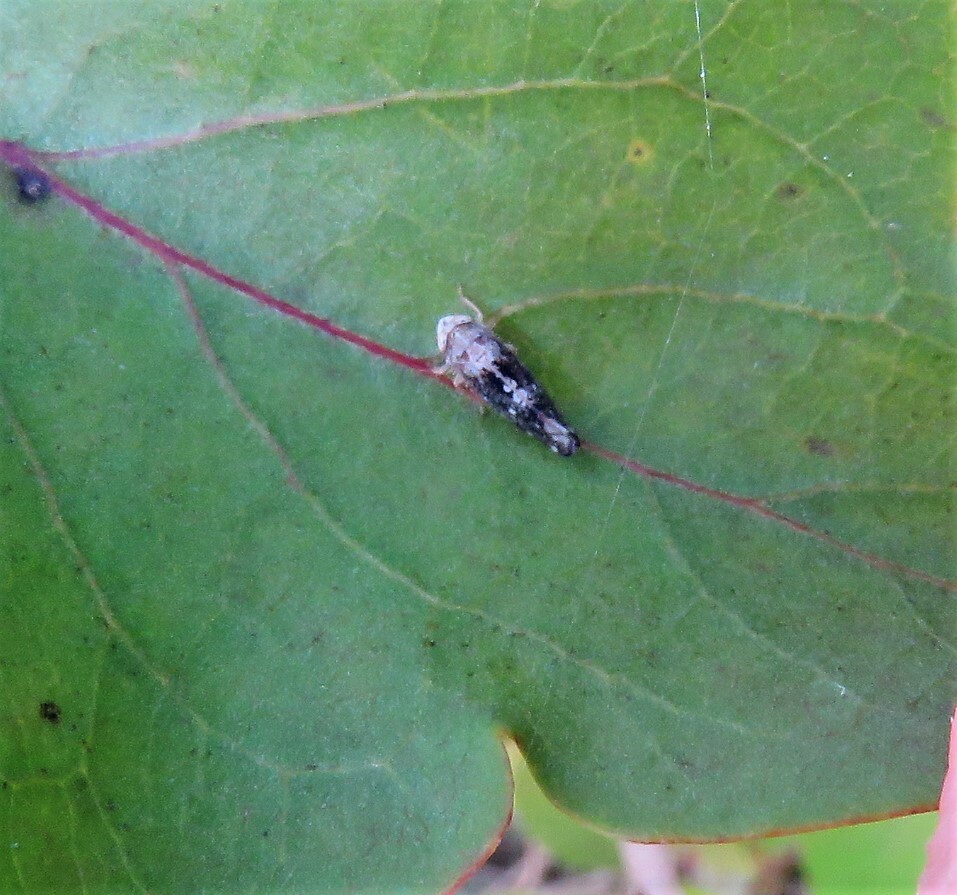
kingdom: Animalia
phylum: Arthropoda
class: Insecta
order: Hemiptera
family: Cicadellidae
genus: Prescottia
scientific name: Prescottia lobata
